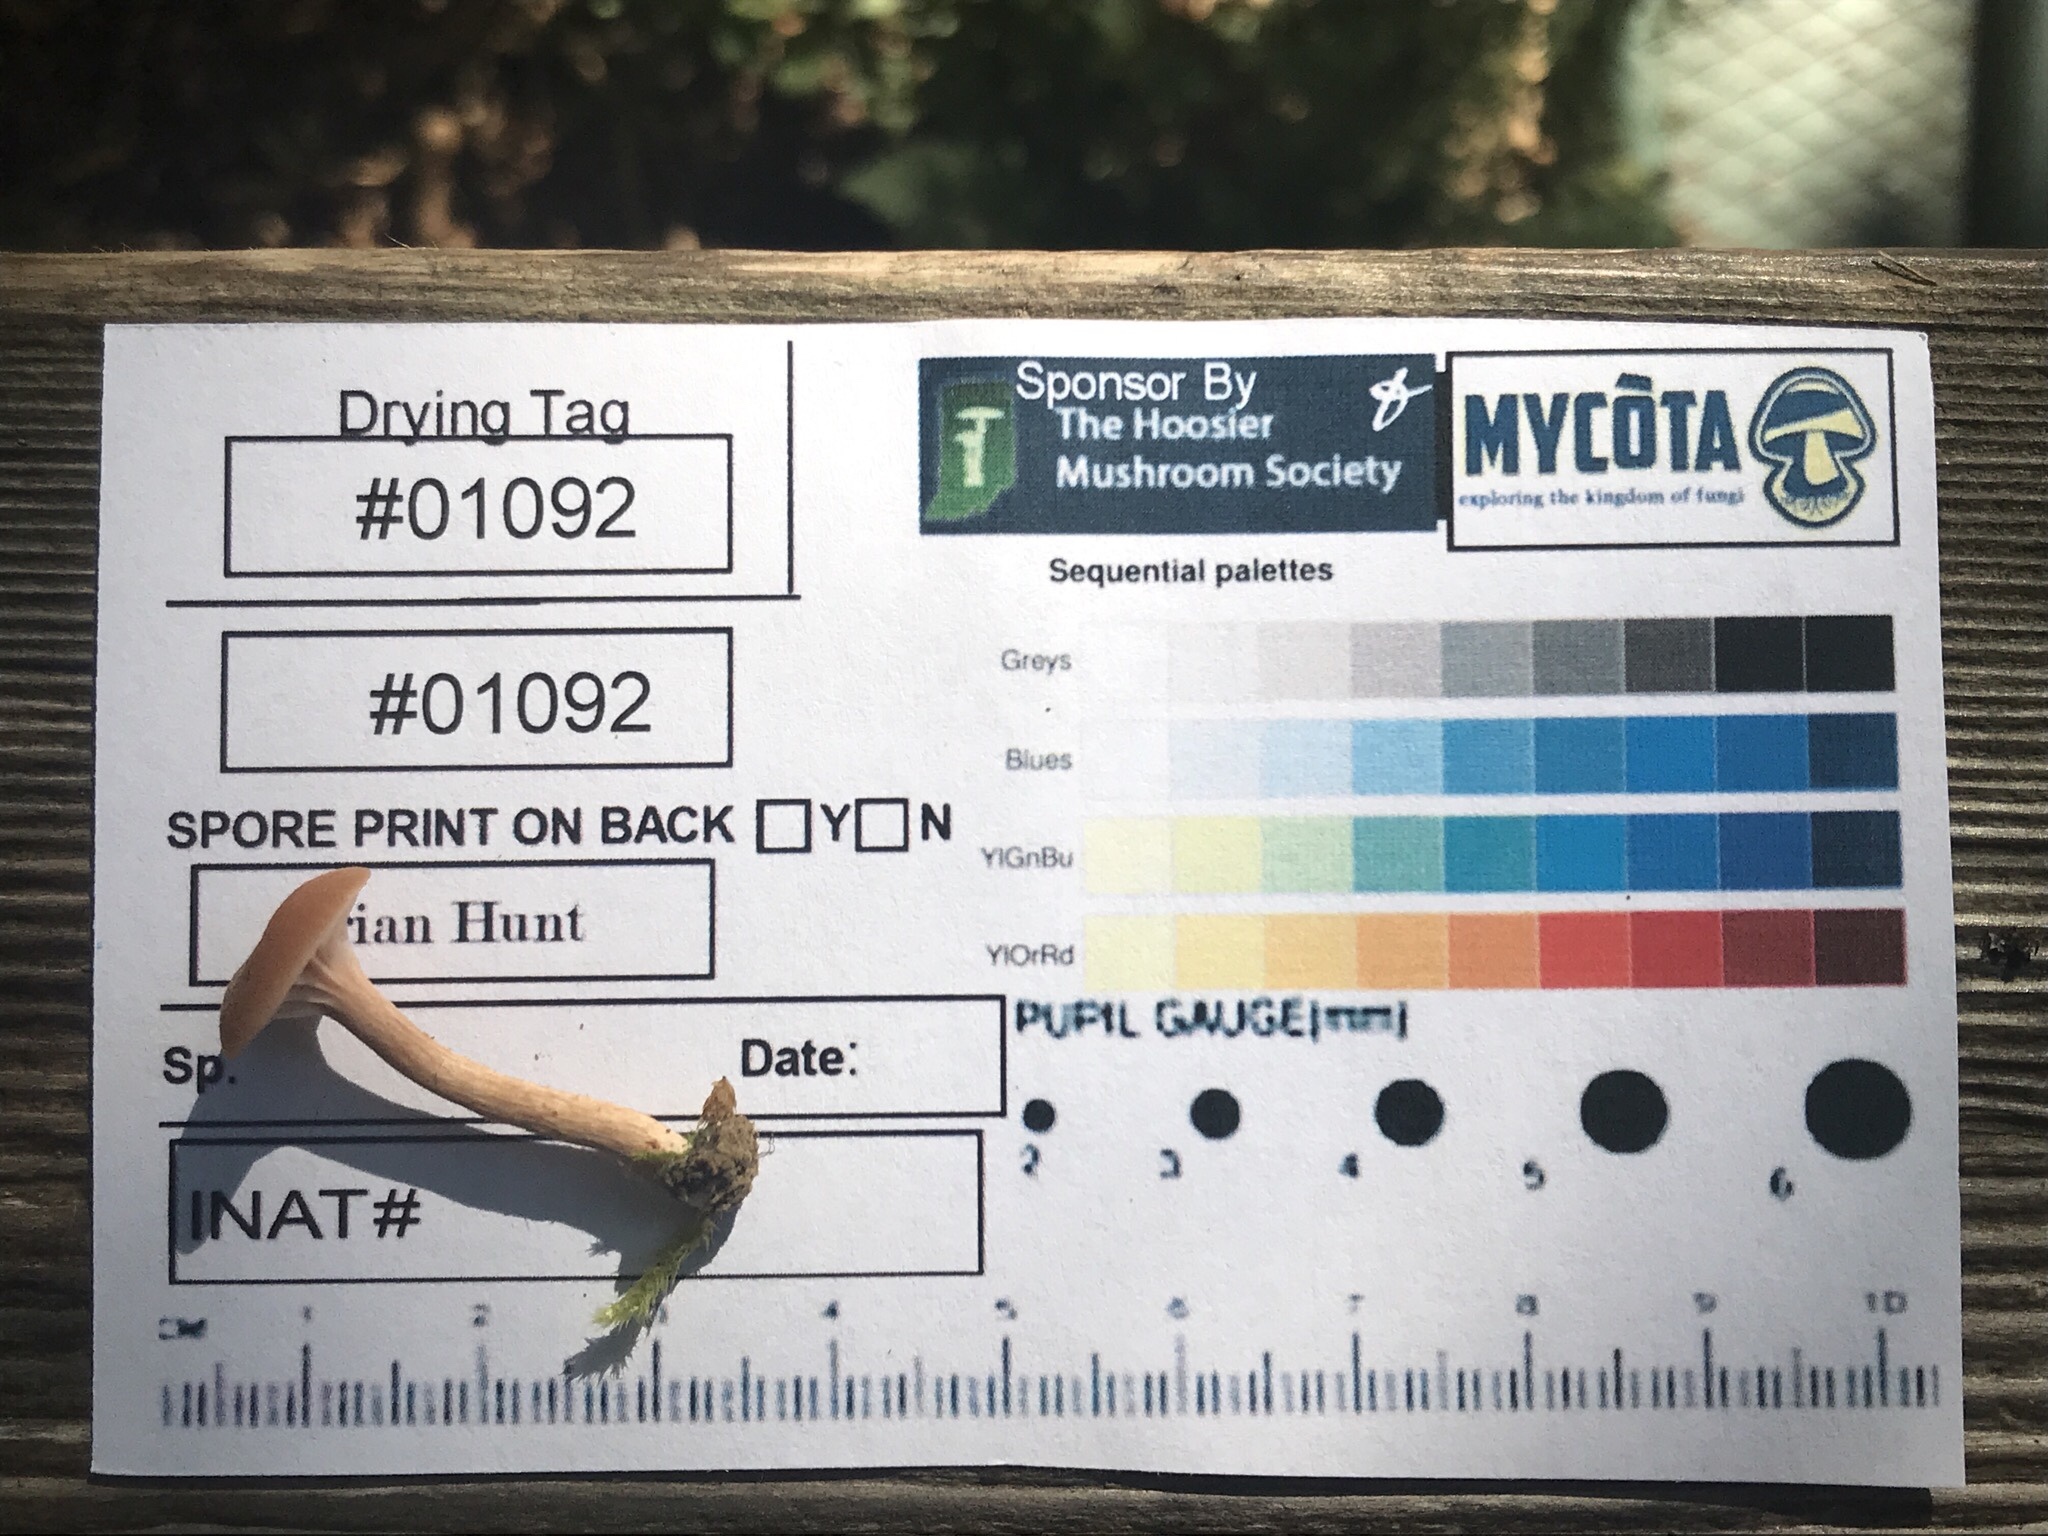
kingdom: Fungi
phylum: Basidiomycota
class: Agaricomycetes
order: Agaricales
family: Hydnangiaceae
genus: Laccaria
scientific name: Laccaria laccata
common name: Deceiver
